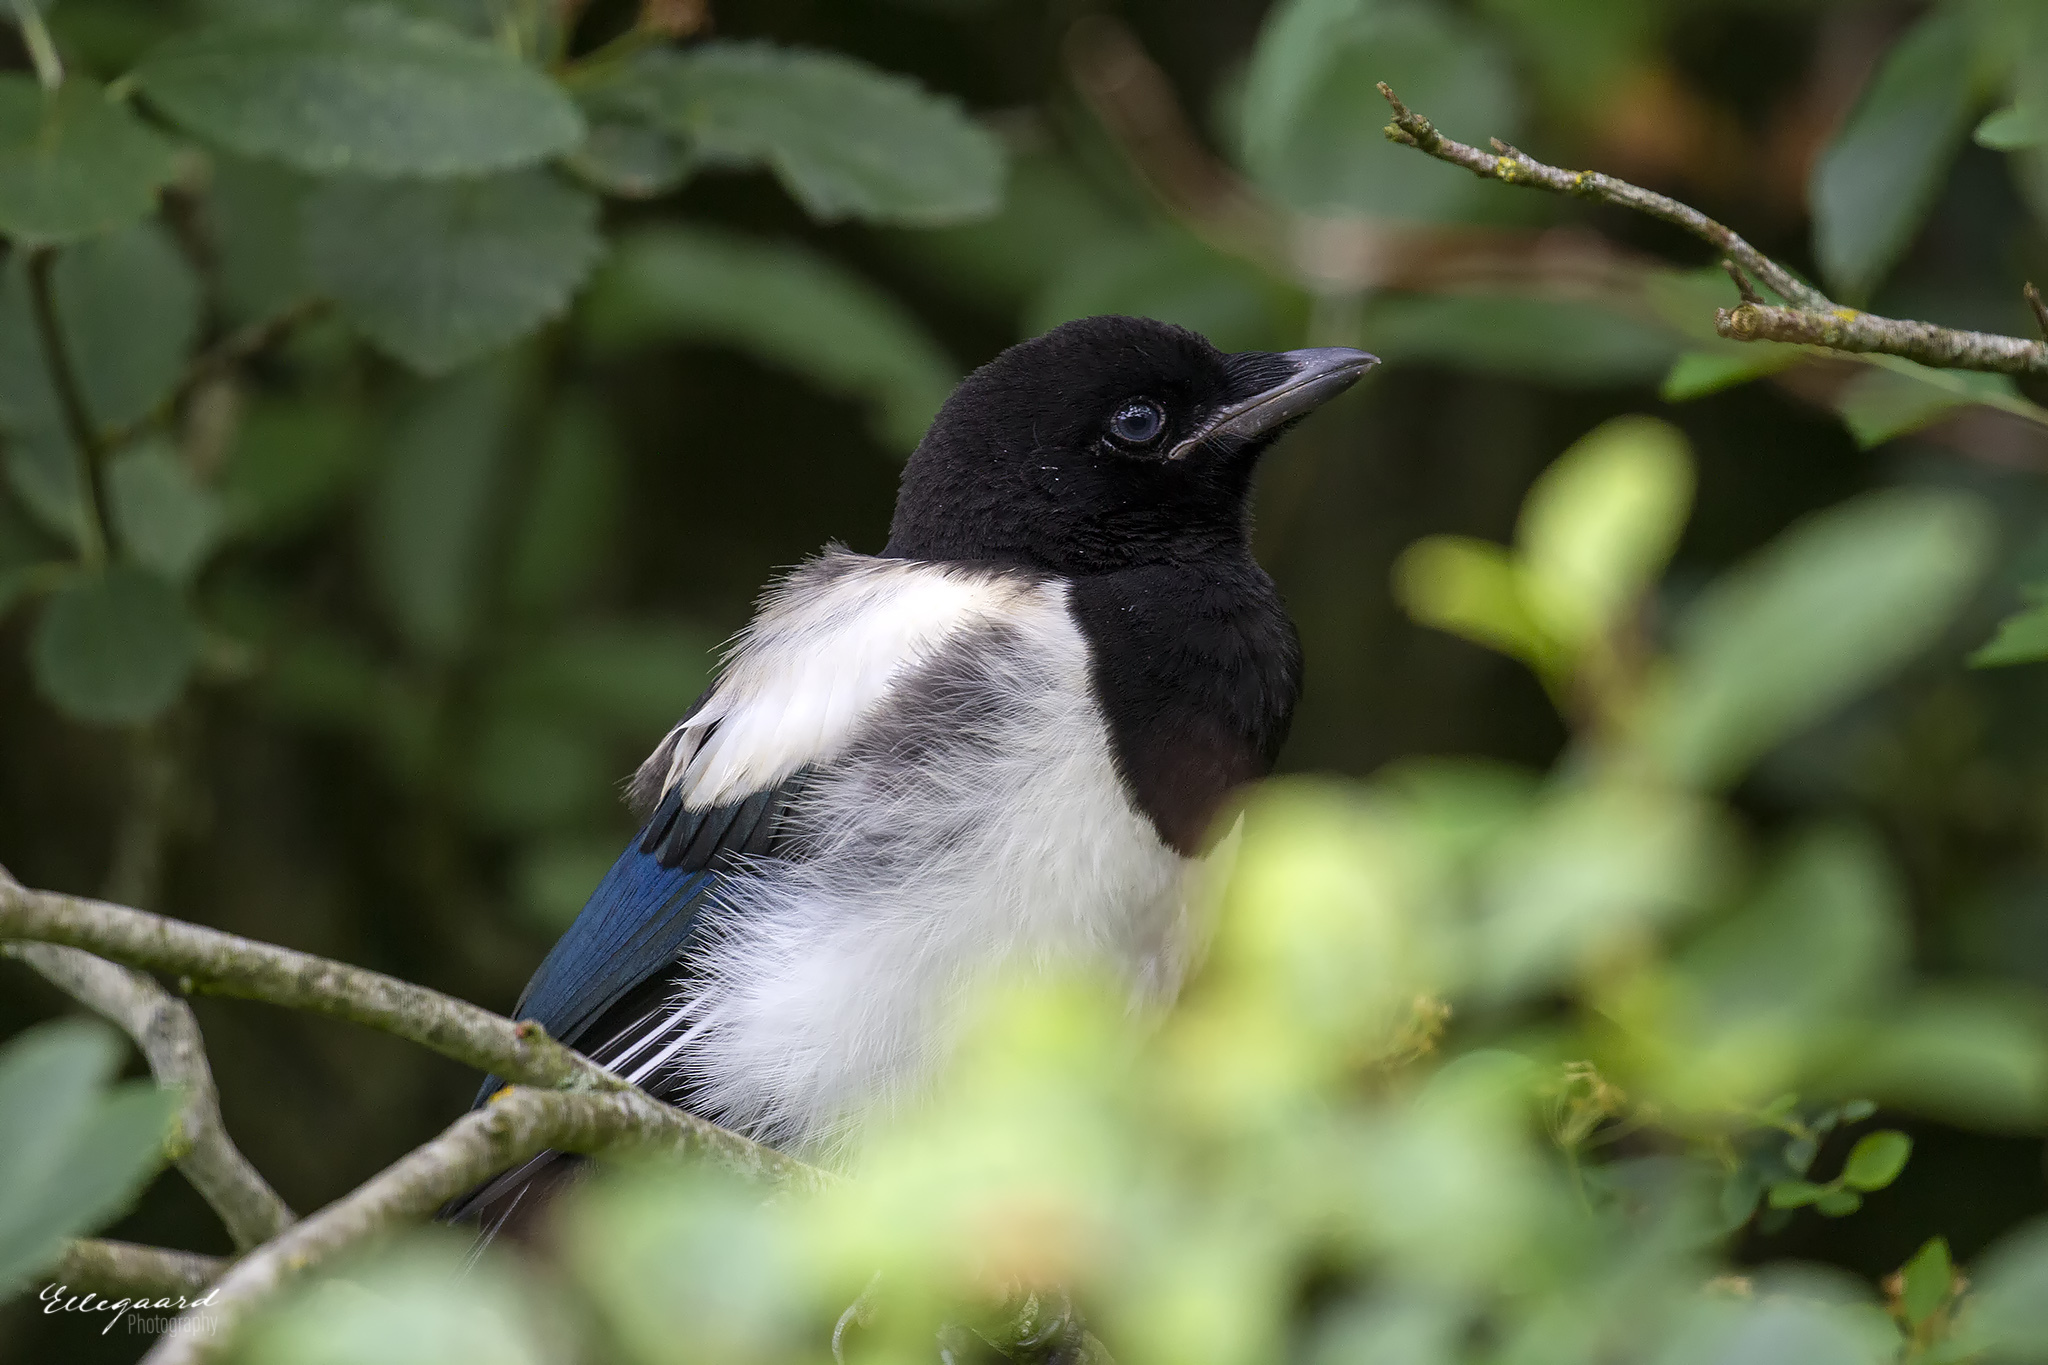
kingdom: Animalia
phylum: Chordata
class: Aves
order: Passeriformes
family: Corvidae
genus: Pica
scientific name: Pica pica
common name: Eurasian magpie
